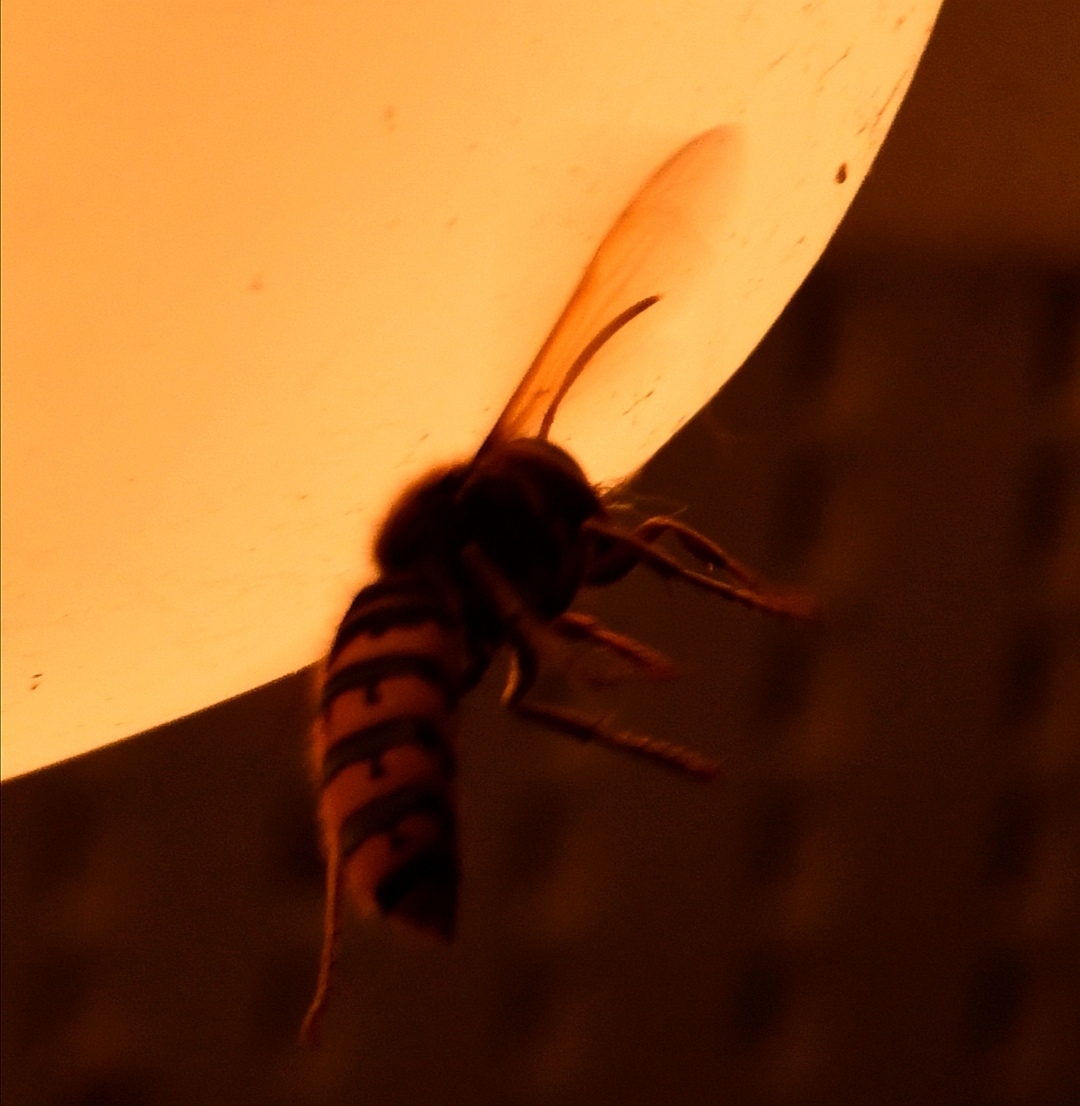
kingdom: Animalia
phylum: Arthropoda
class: Insecta
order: Hymenoptera
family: Vespidae
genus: Vespa
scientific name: Vespa crabro
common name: Hornet
